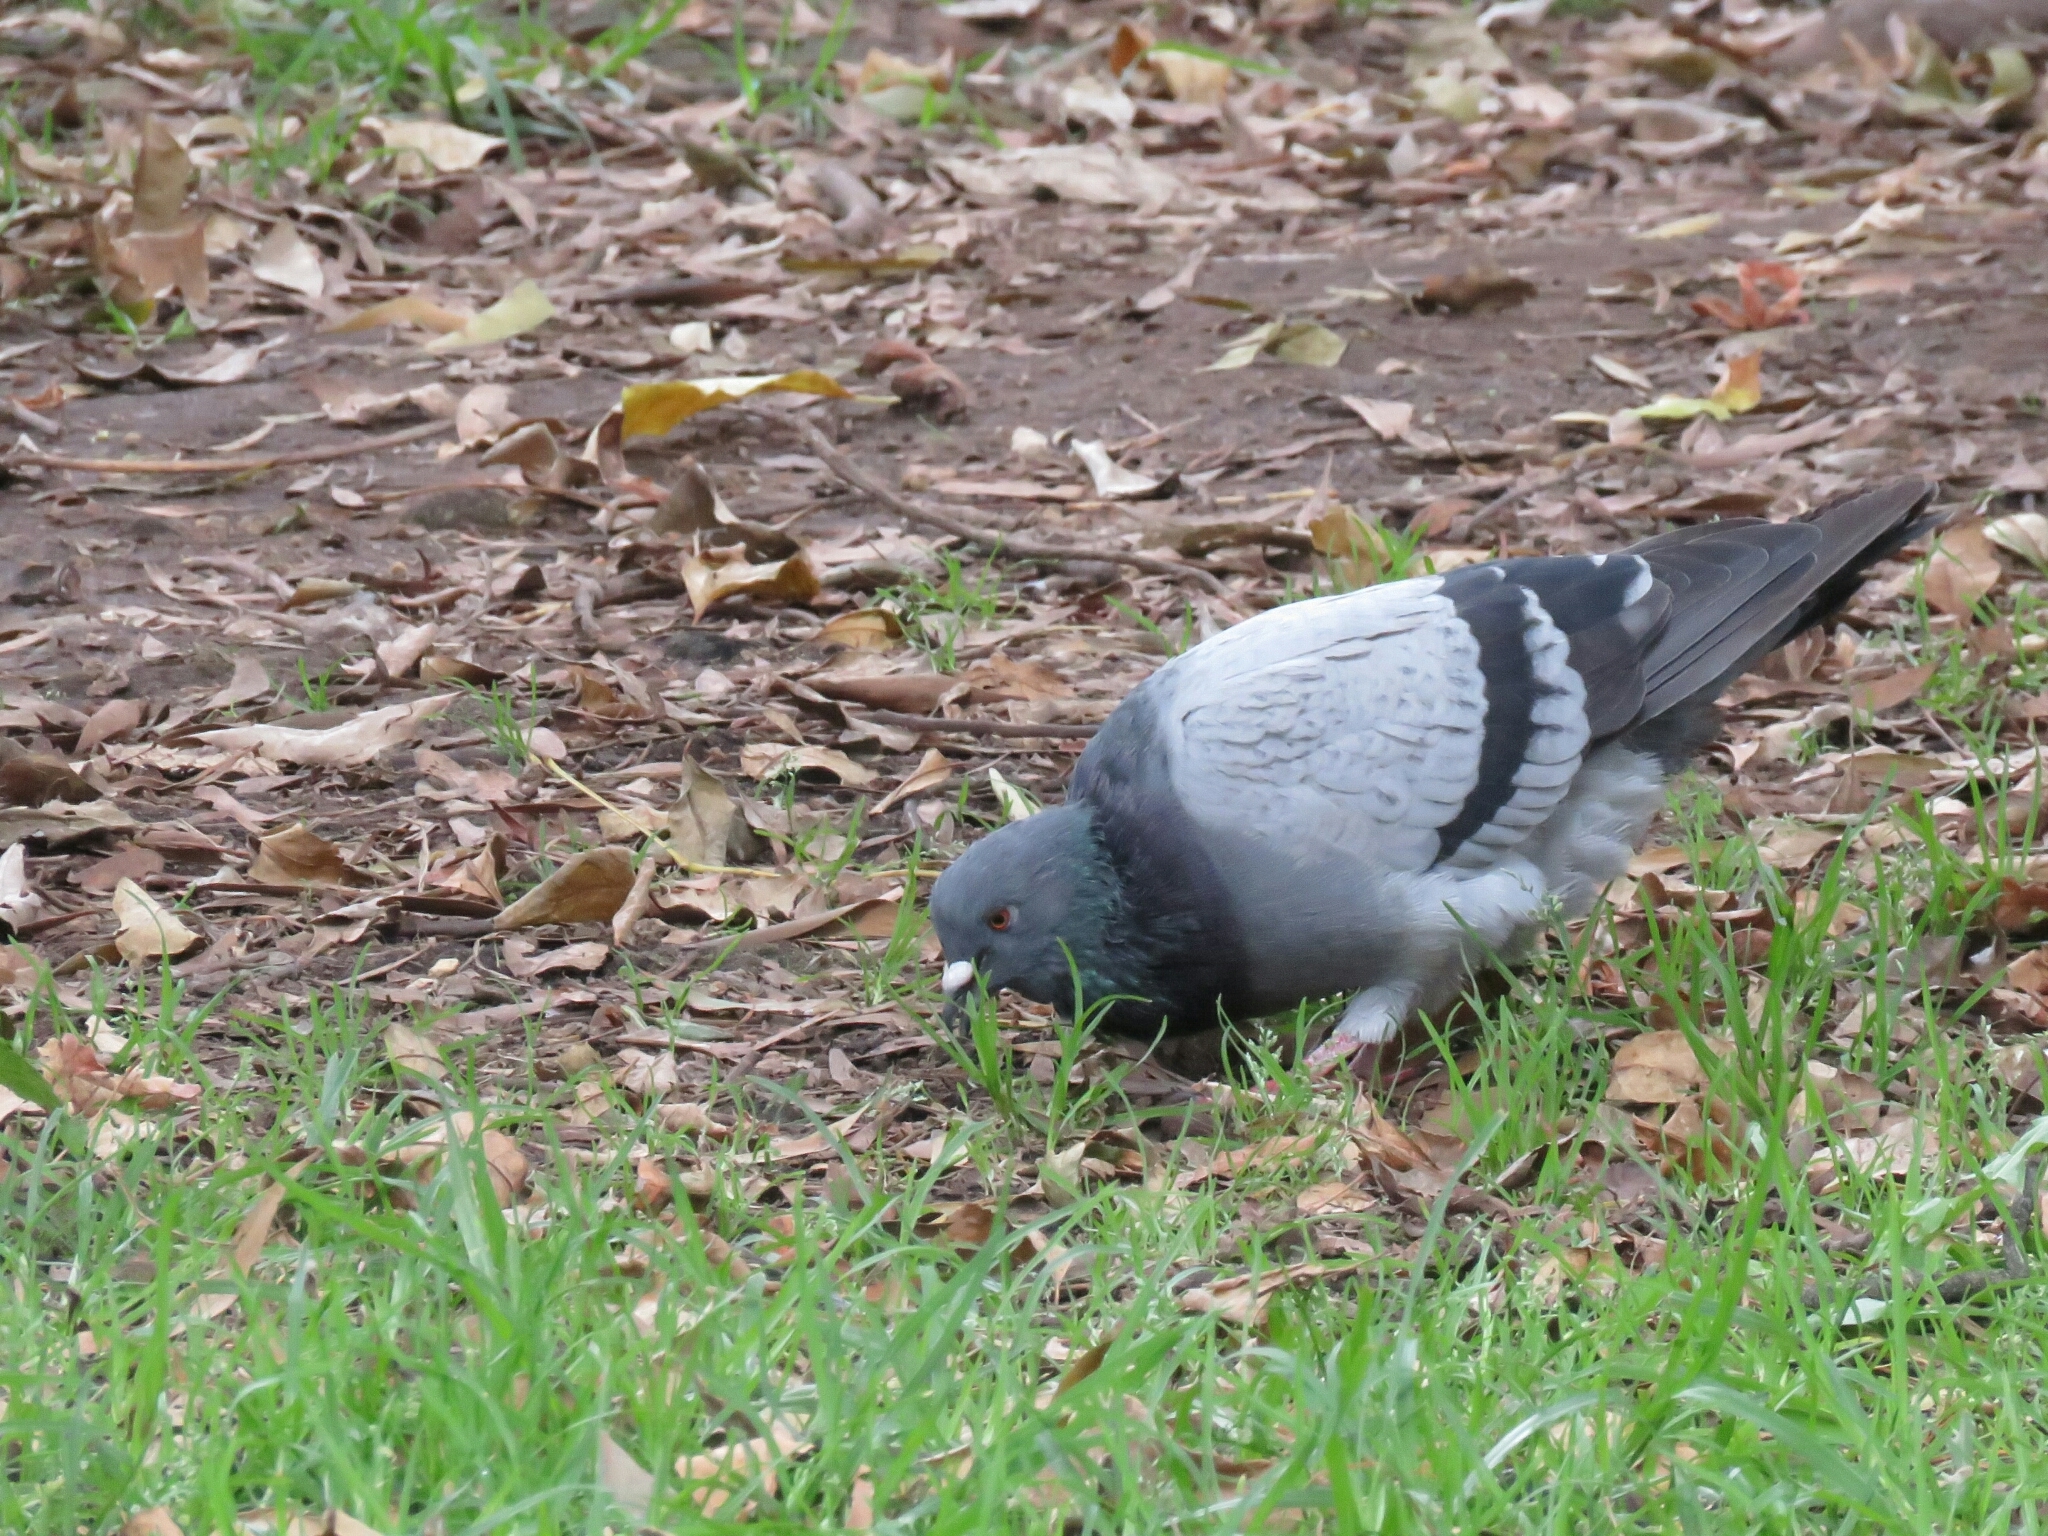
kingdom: Animalia
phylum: Chordata
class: Aves
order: Columbiformes
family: Columbidae
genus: Columba
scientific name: Columba livia
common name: Rock pigeon
